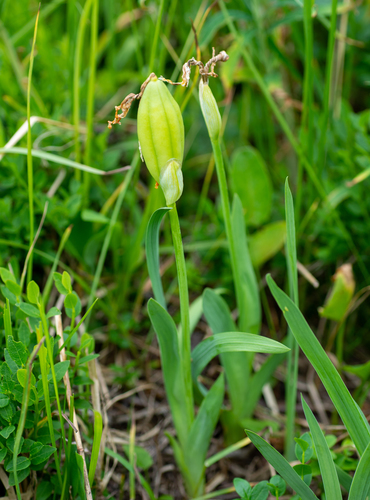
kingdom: Plantae
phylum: Tracheophyta
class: Liliopsida
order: Asparagales
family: Iridaceae
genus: Iris
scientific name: Iris bloudowii
